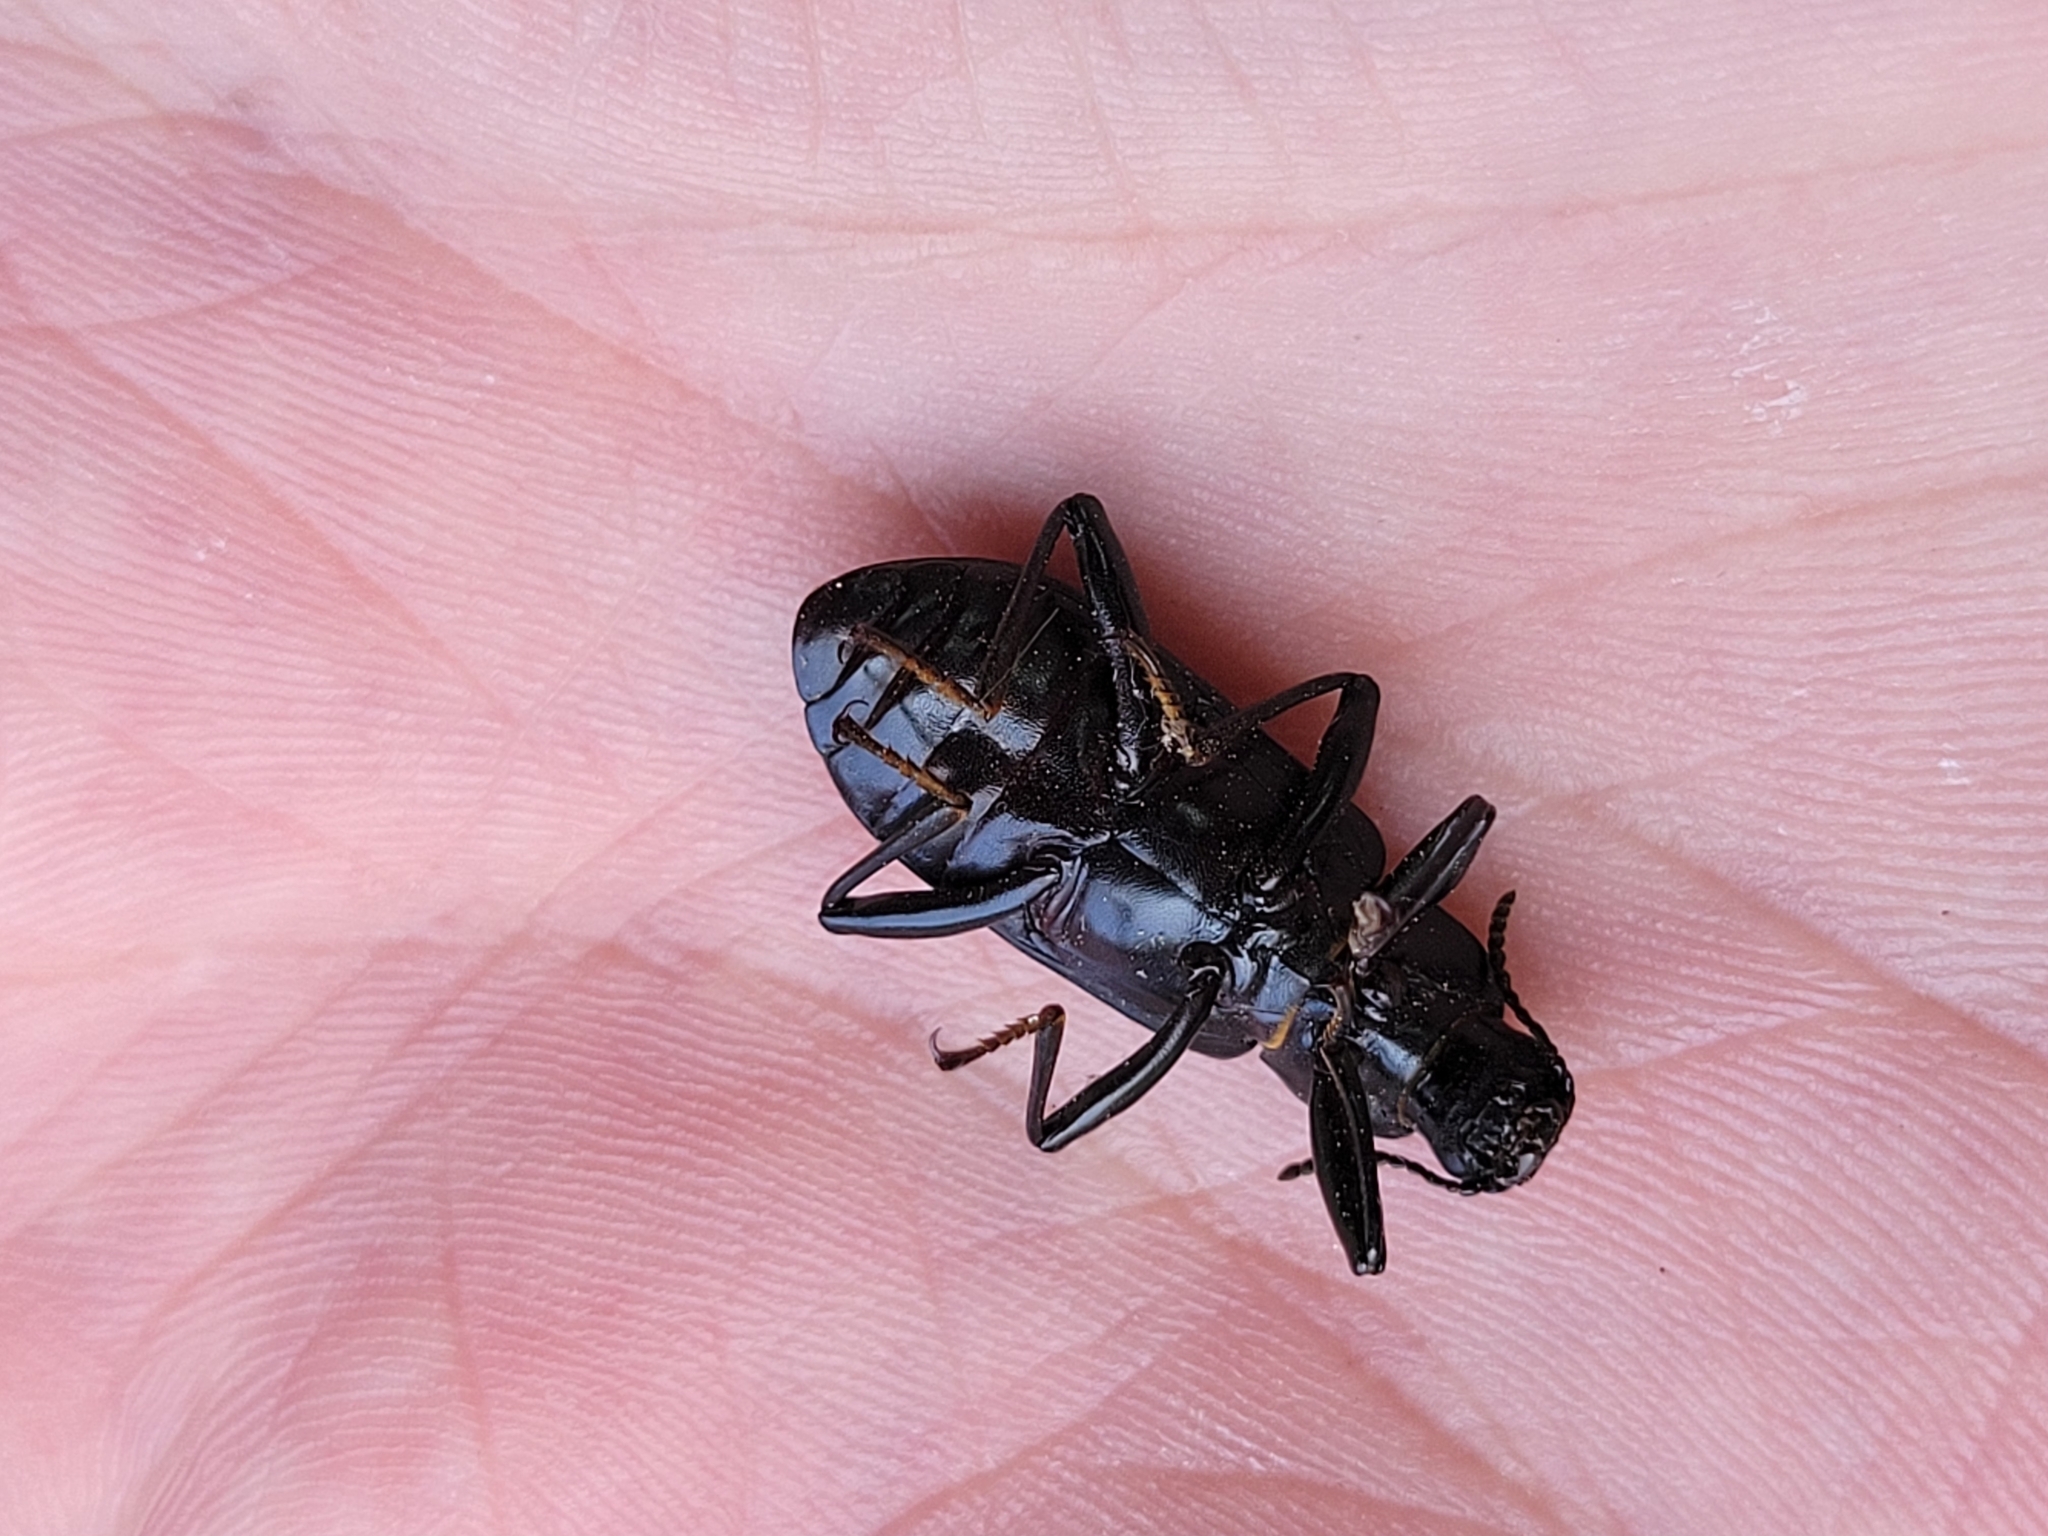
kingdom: Animalia
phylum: Arthropoda
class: Insecta
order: Coleoptera
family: Tenebrionidae
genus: Alobates
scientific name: Alobates pensylvanicus
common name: False mealworm beetle
